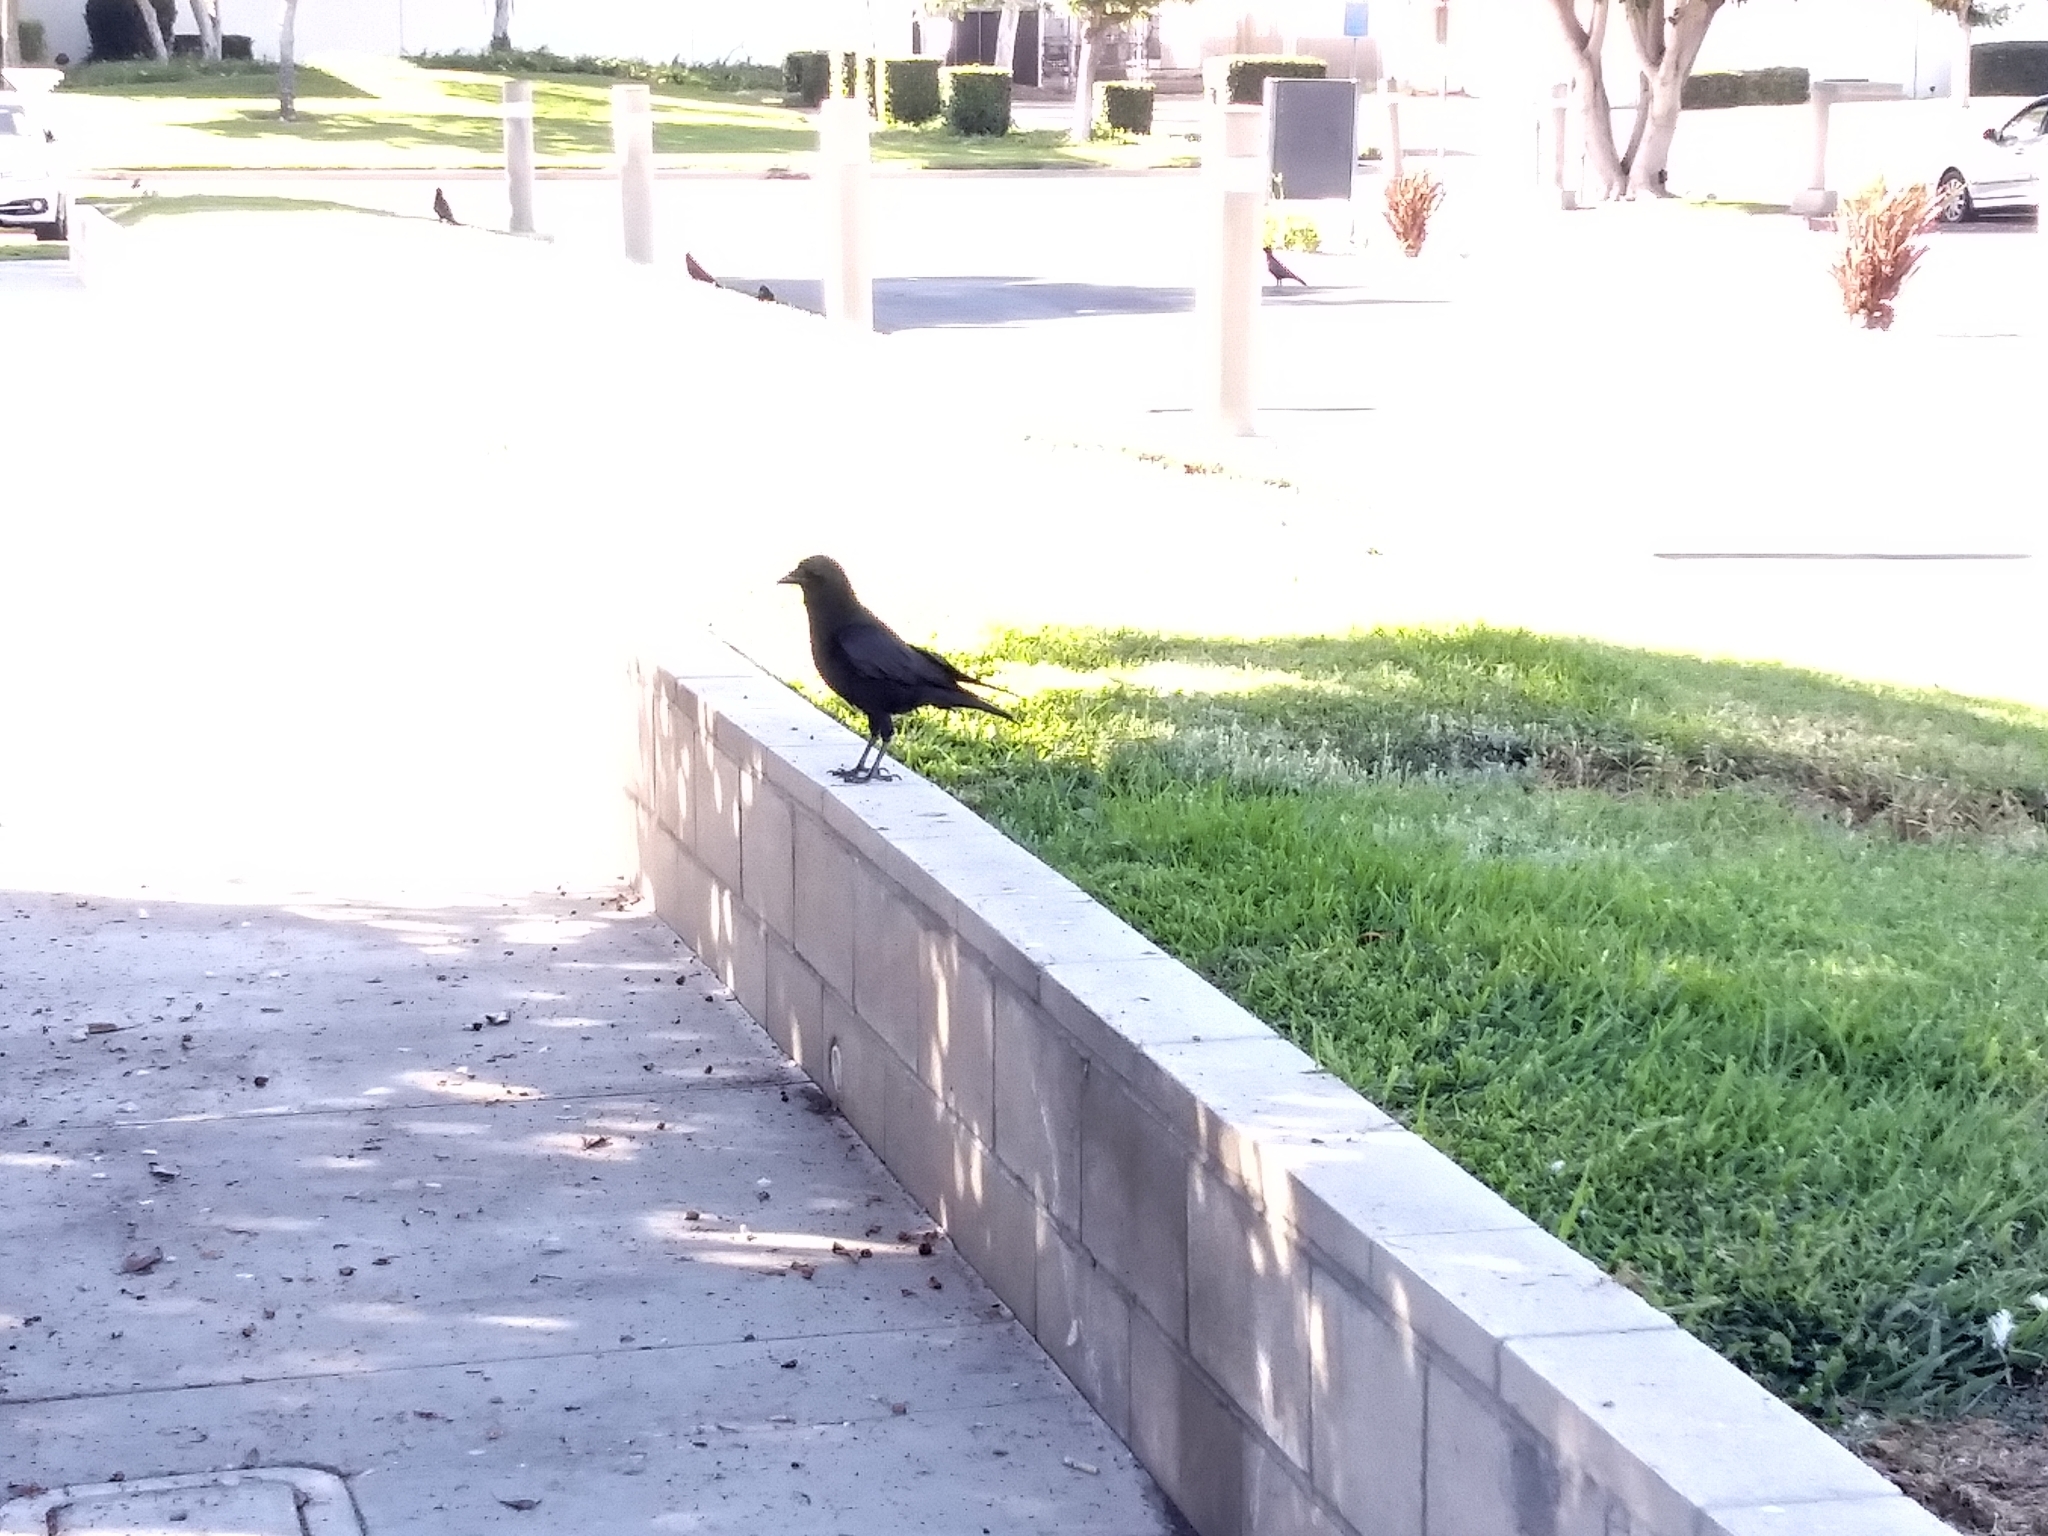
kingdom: Animalia
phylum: Chordata
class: Aves
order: Passeriformes
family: Corvidae
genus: Corvus
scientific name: Corvus brachyrhynchos
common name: American crow
